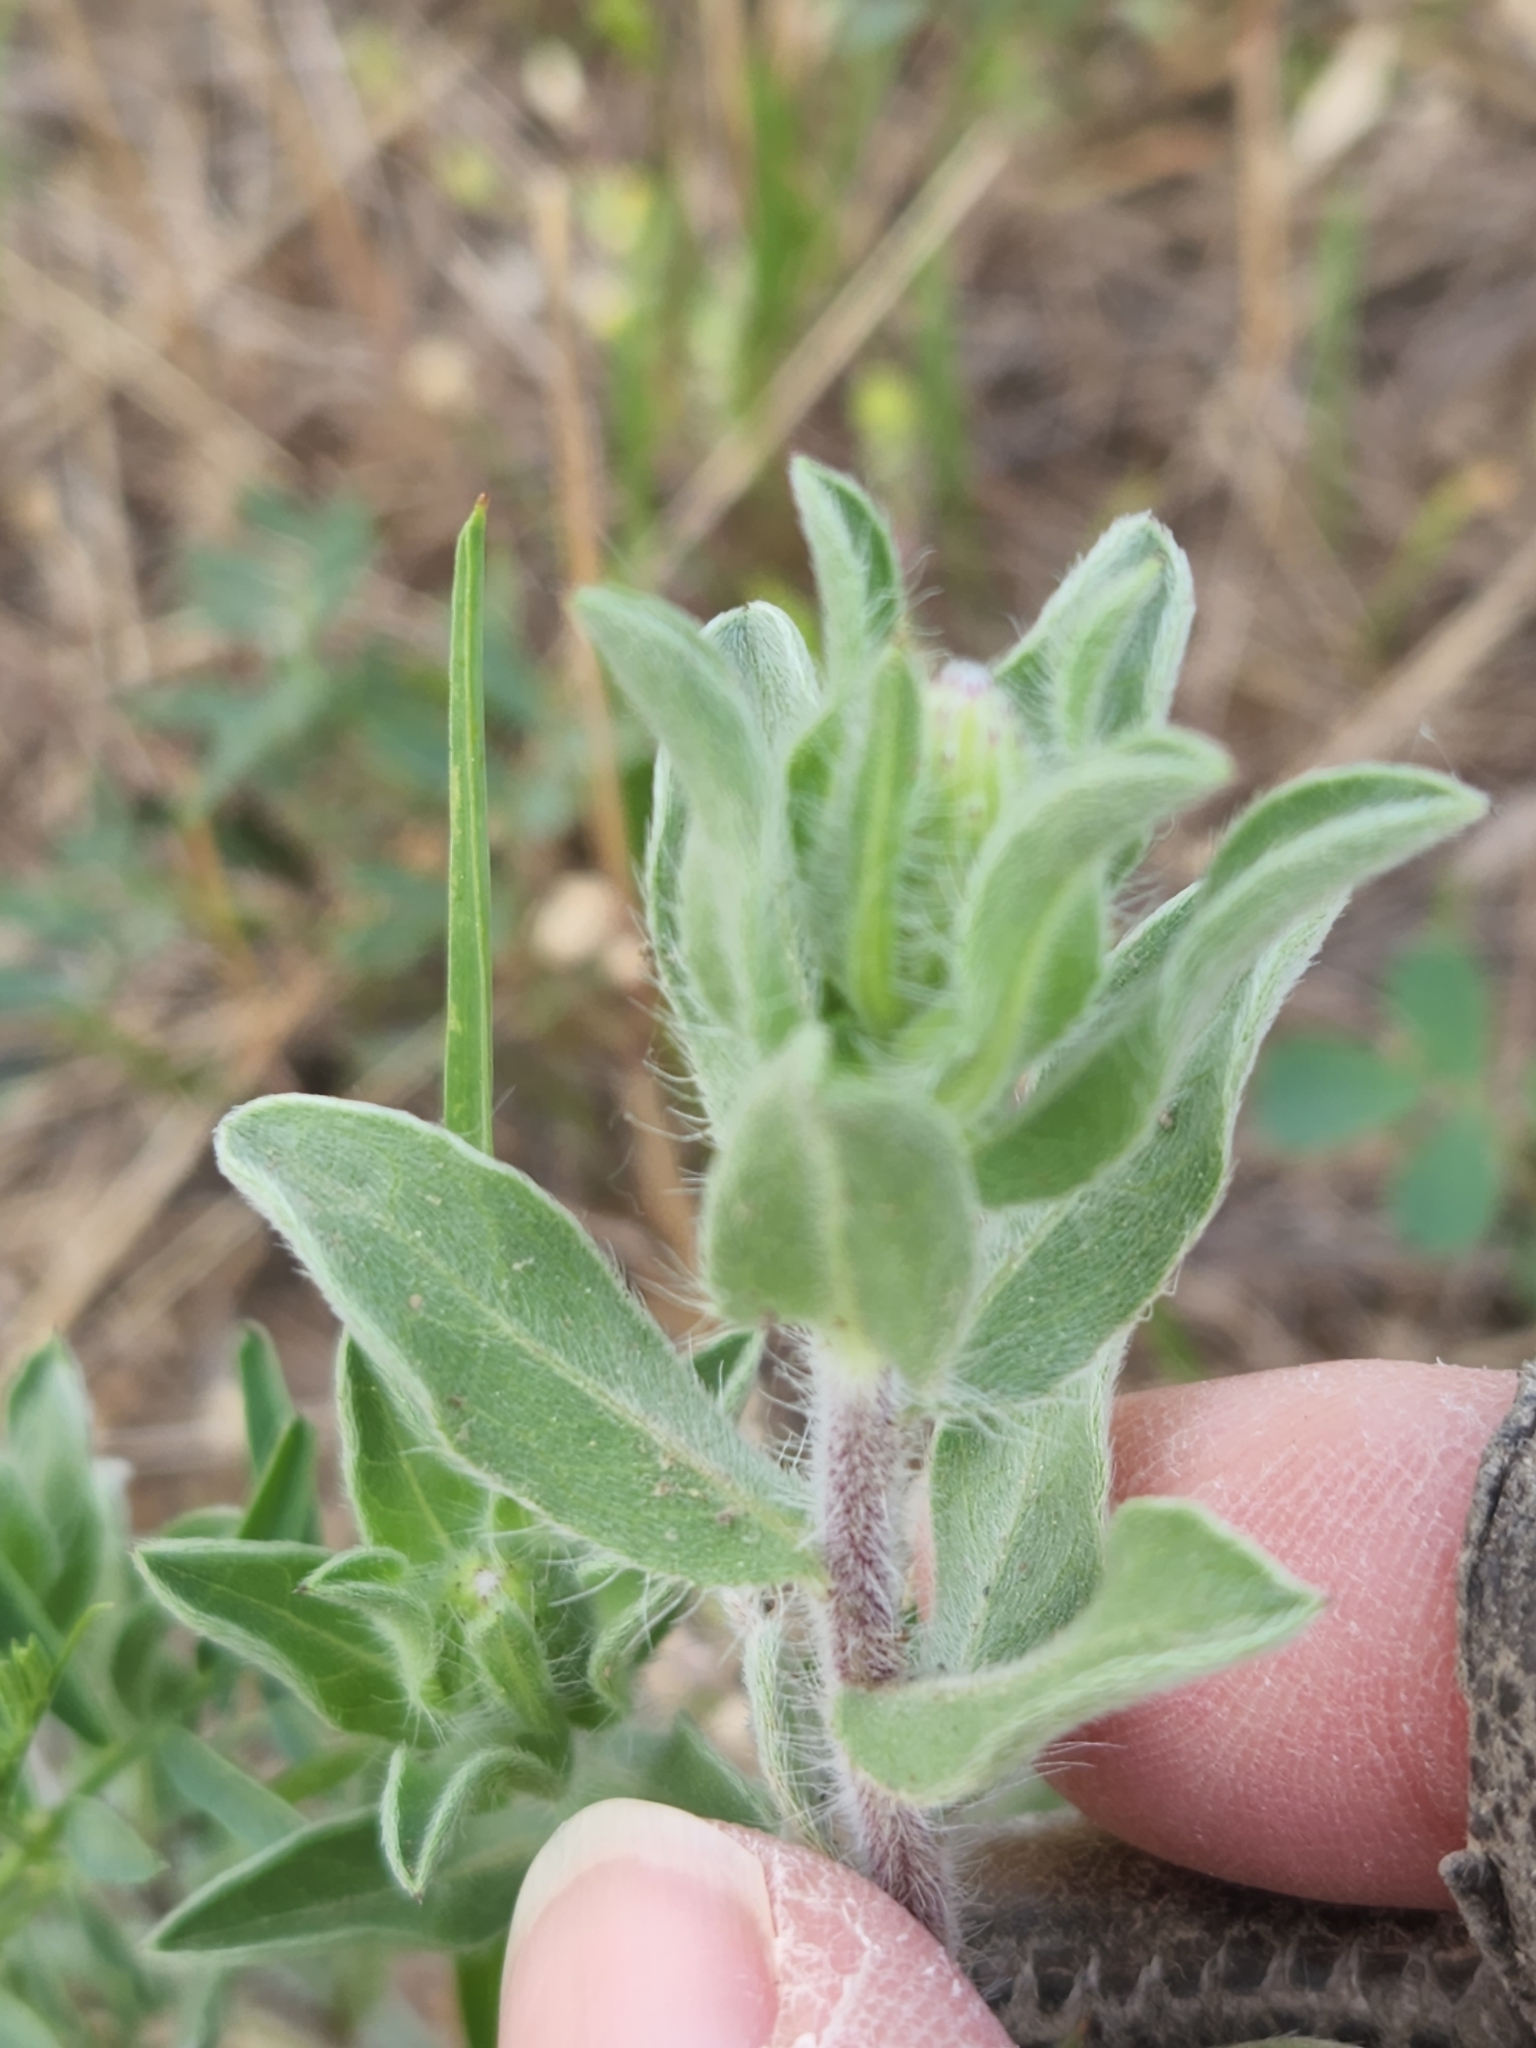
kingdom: Plantae
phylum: Tracheophyta
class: Magnoliopsida
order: Asterales
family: Asteraceae
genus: Heterotheca
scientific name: Heterotheca hispida
